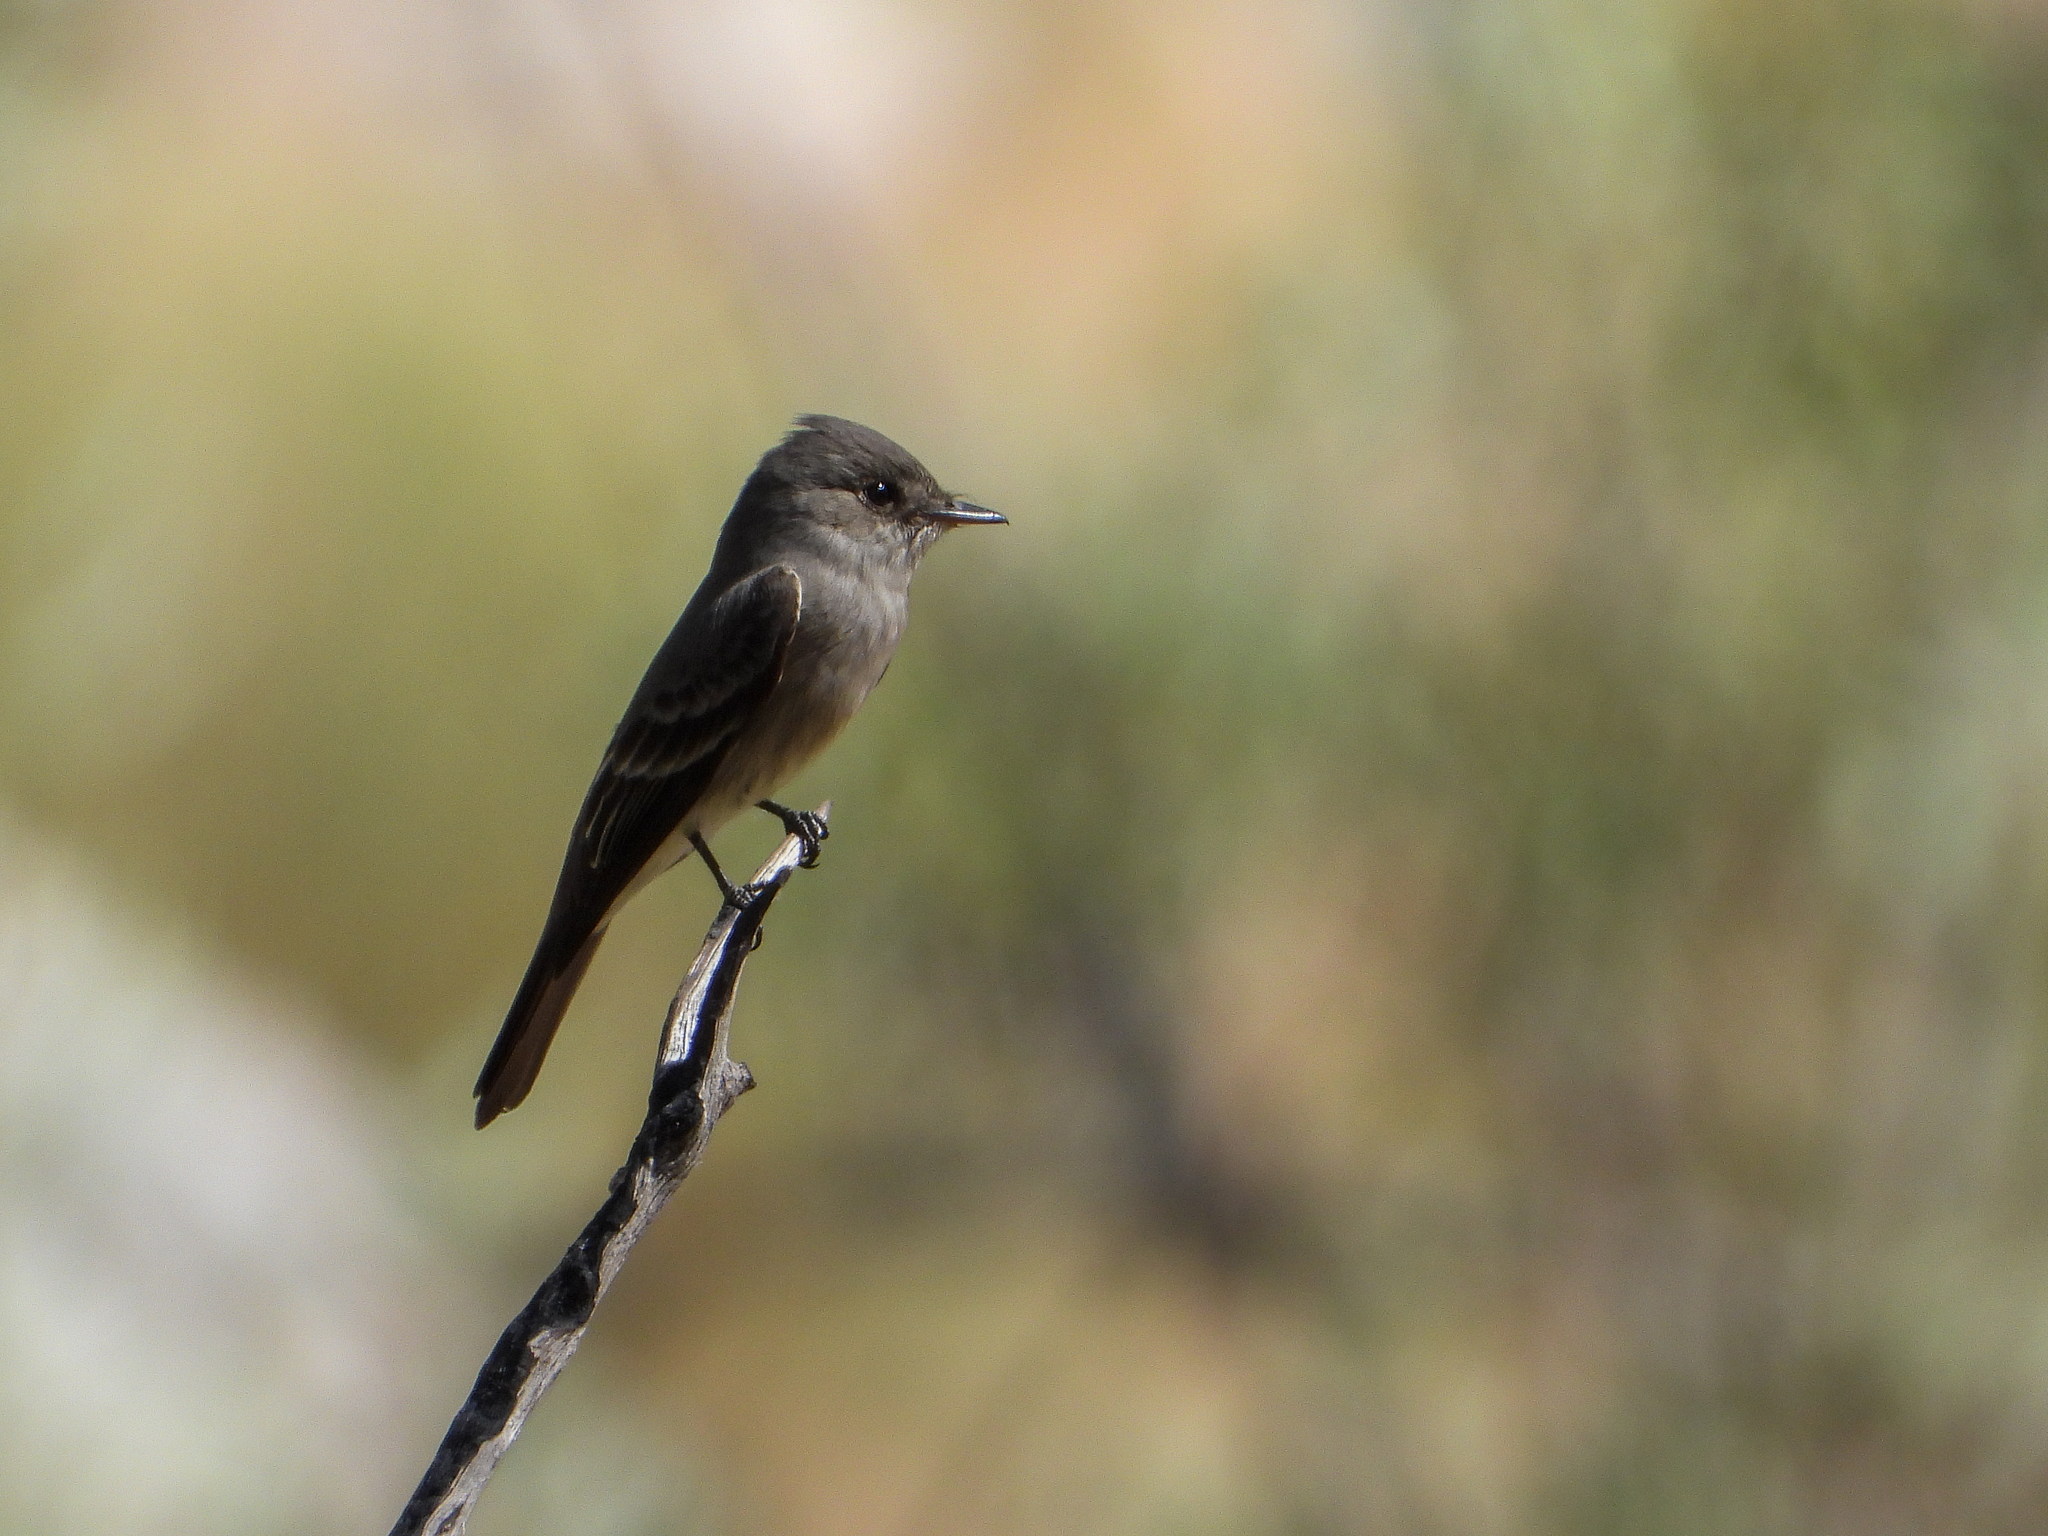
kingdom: Animalia
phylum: Chordata
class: Aves
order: Passeriformes
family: Tyrannidae
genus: Contopus
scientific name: Contopus sordidulus
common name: Western wood-pewee
